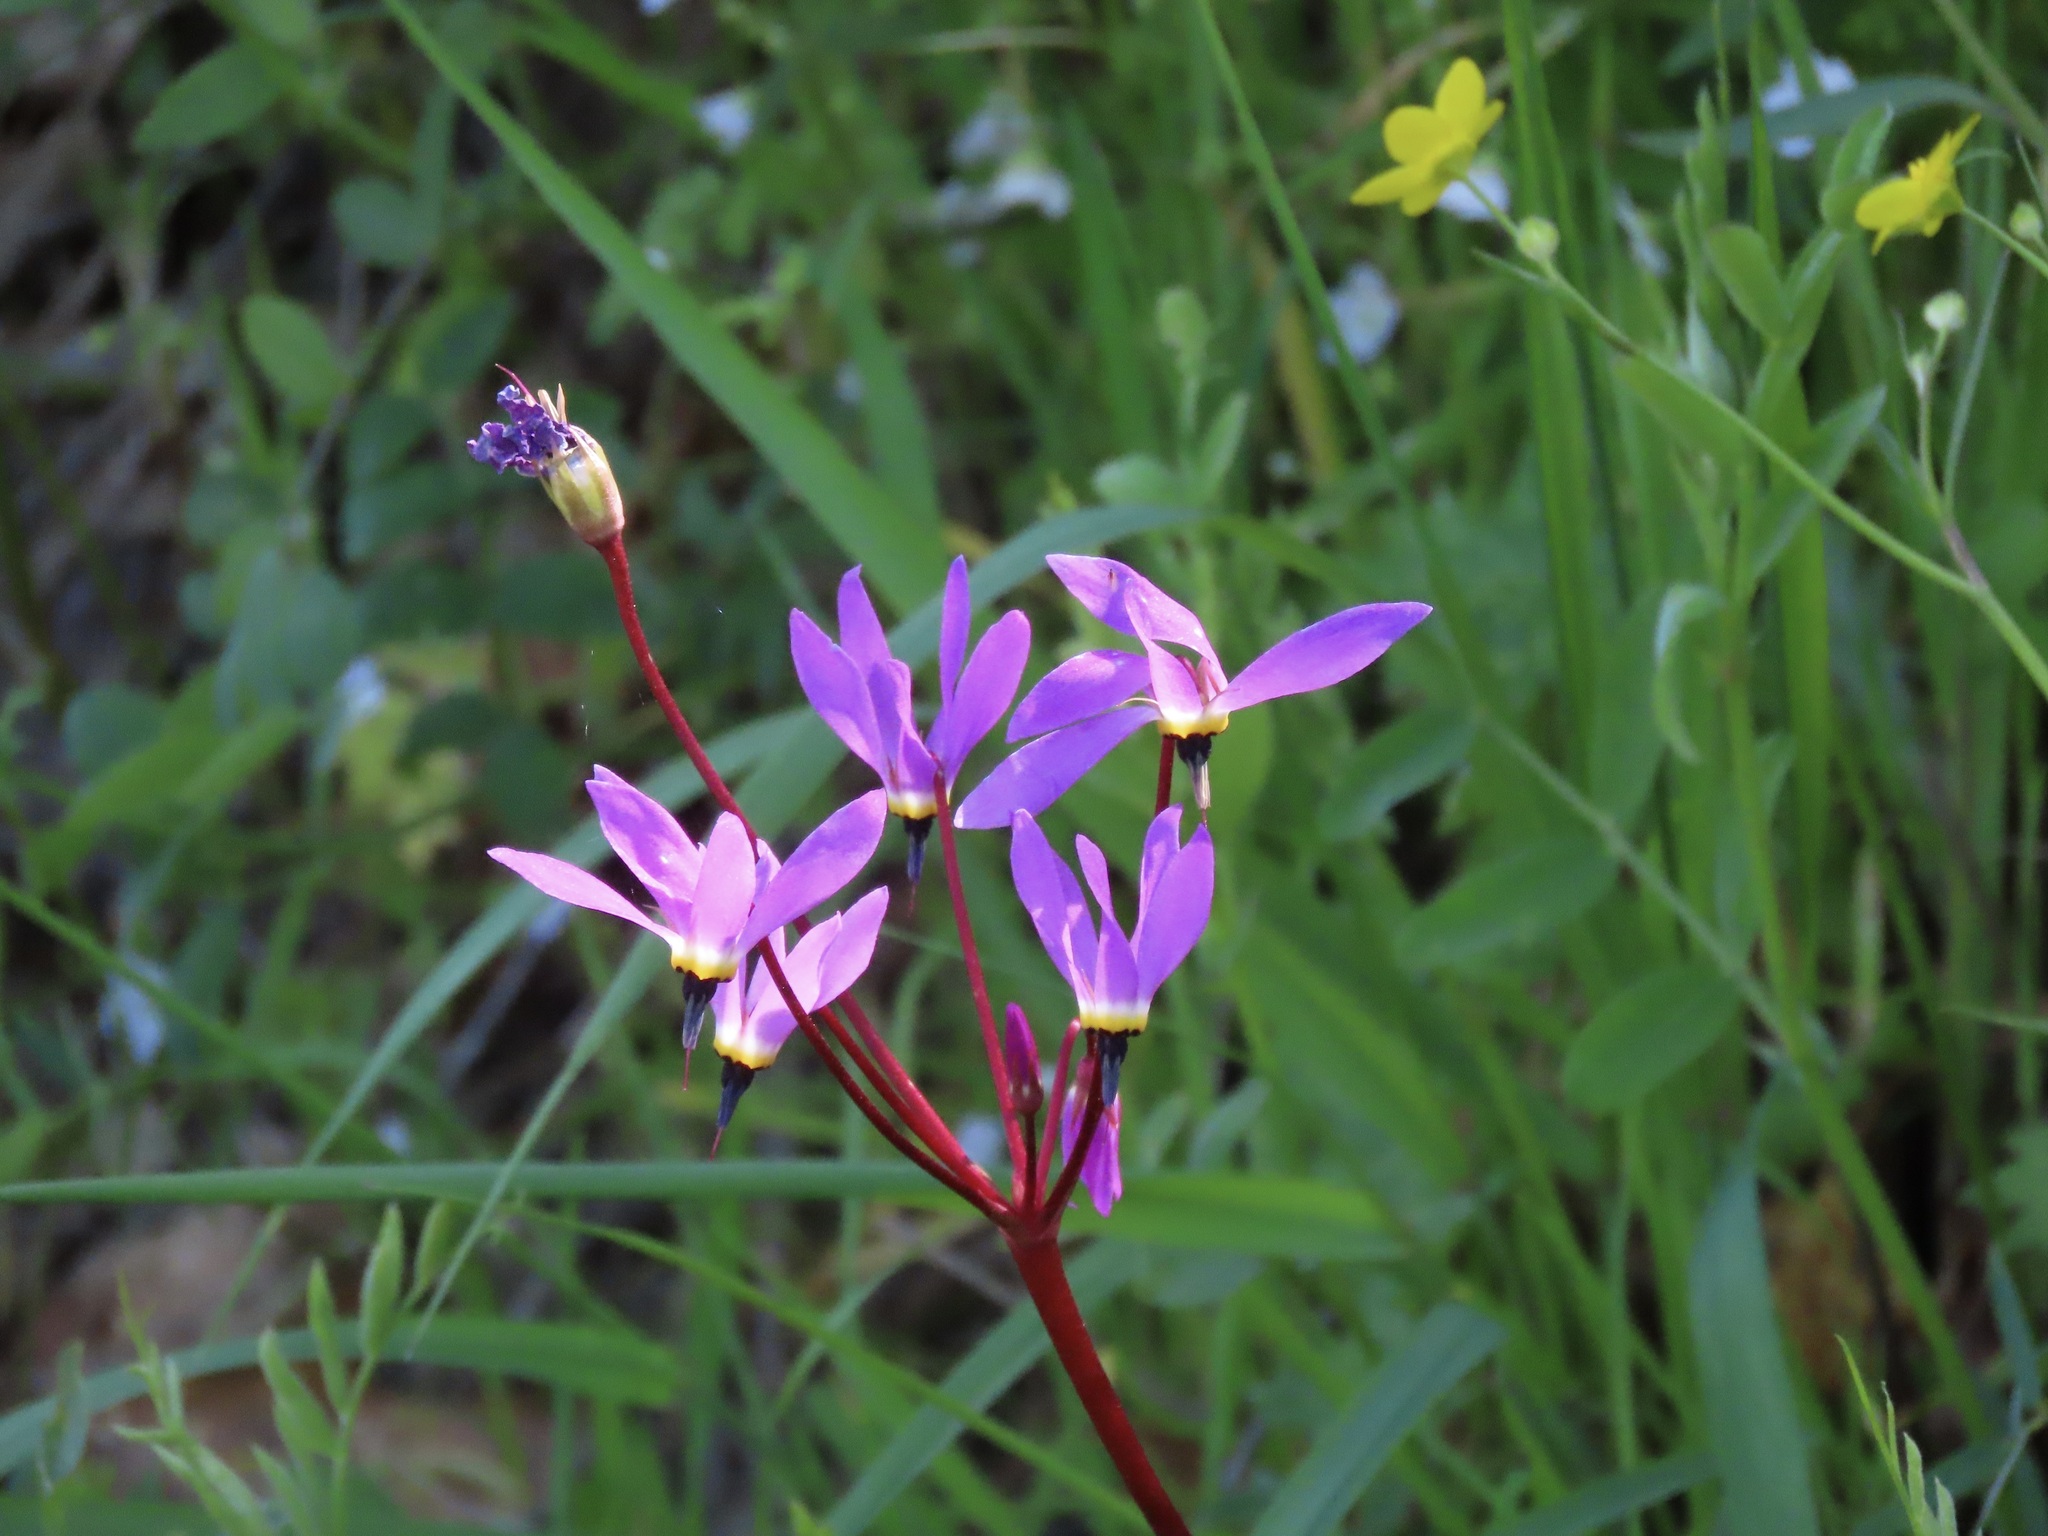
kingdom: Plantae
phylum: Tracheophyta
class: Magnoliopsida
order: Ericales
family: Primulaceae
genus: Dodecatheon
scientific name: Dodecatheon hendersonii
